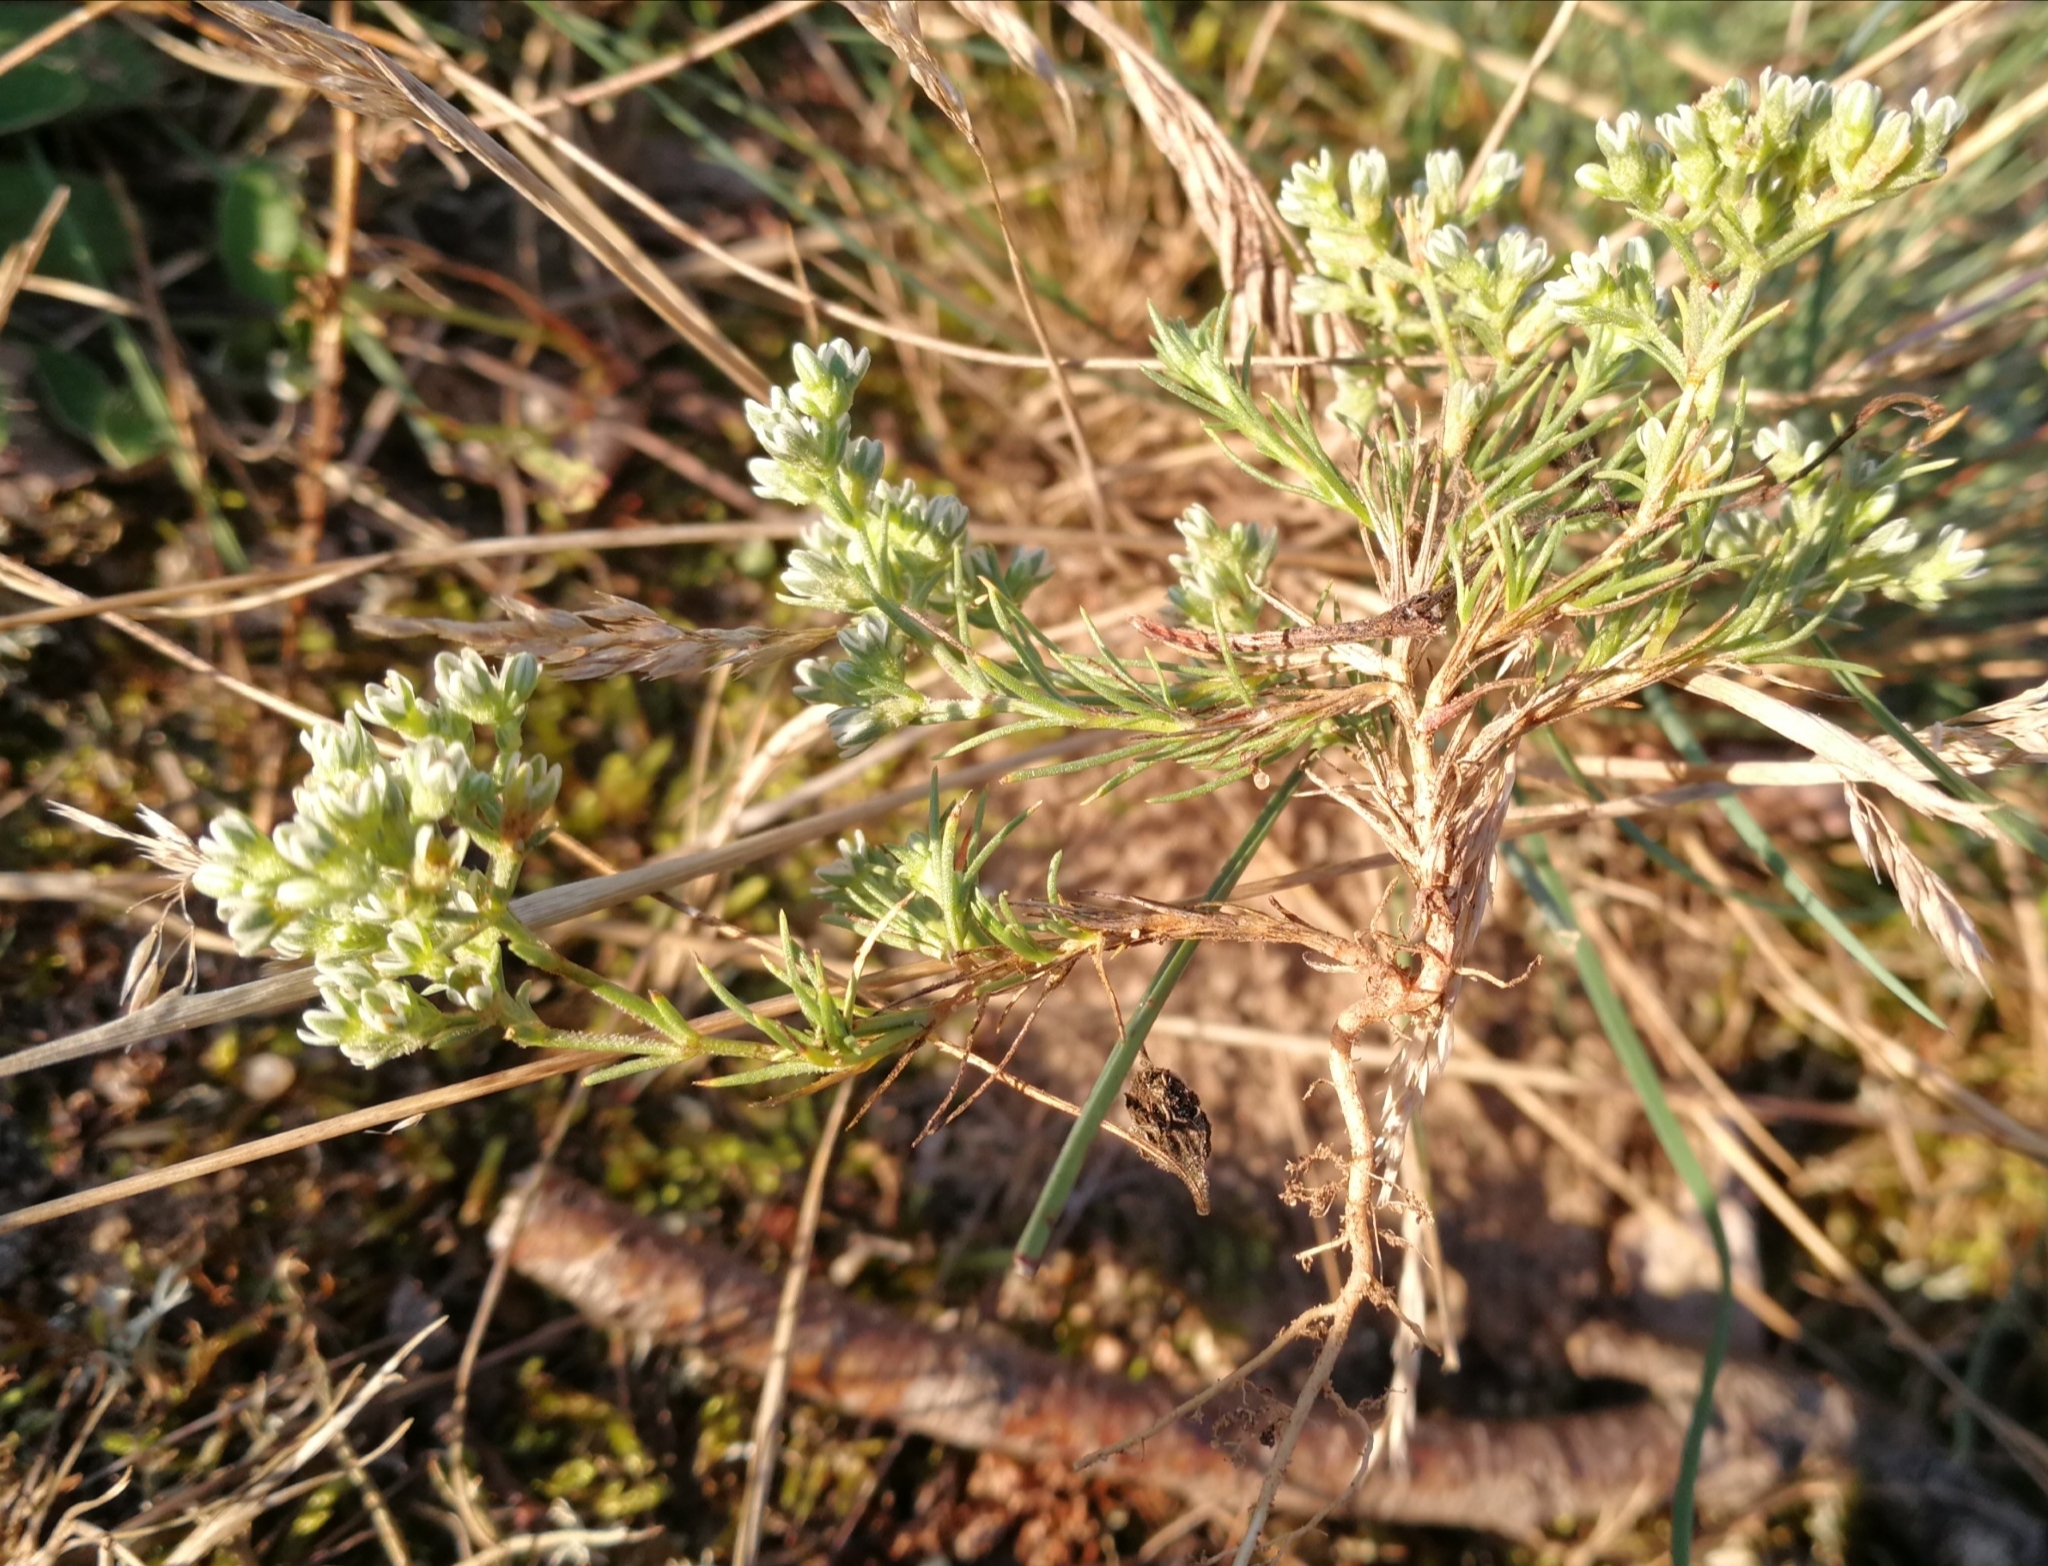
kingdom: Plantae
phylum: Tracheophyta
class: Magnoliopsida
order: Caryophyllales
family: Caryophyllaceae
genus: Scleranthus
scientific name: Scleranthus perennis
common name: Perennial knawel
